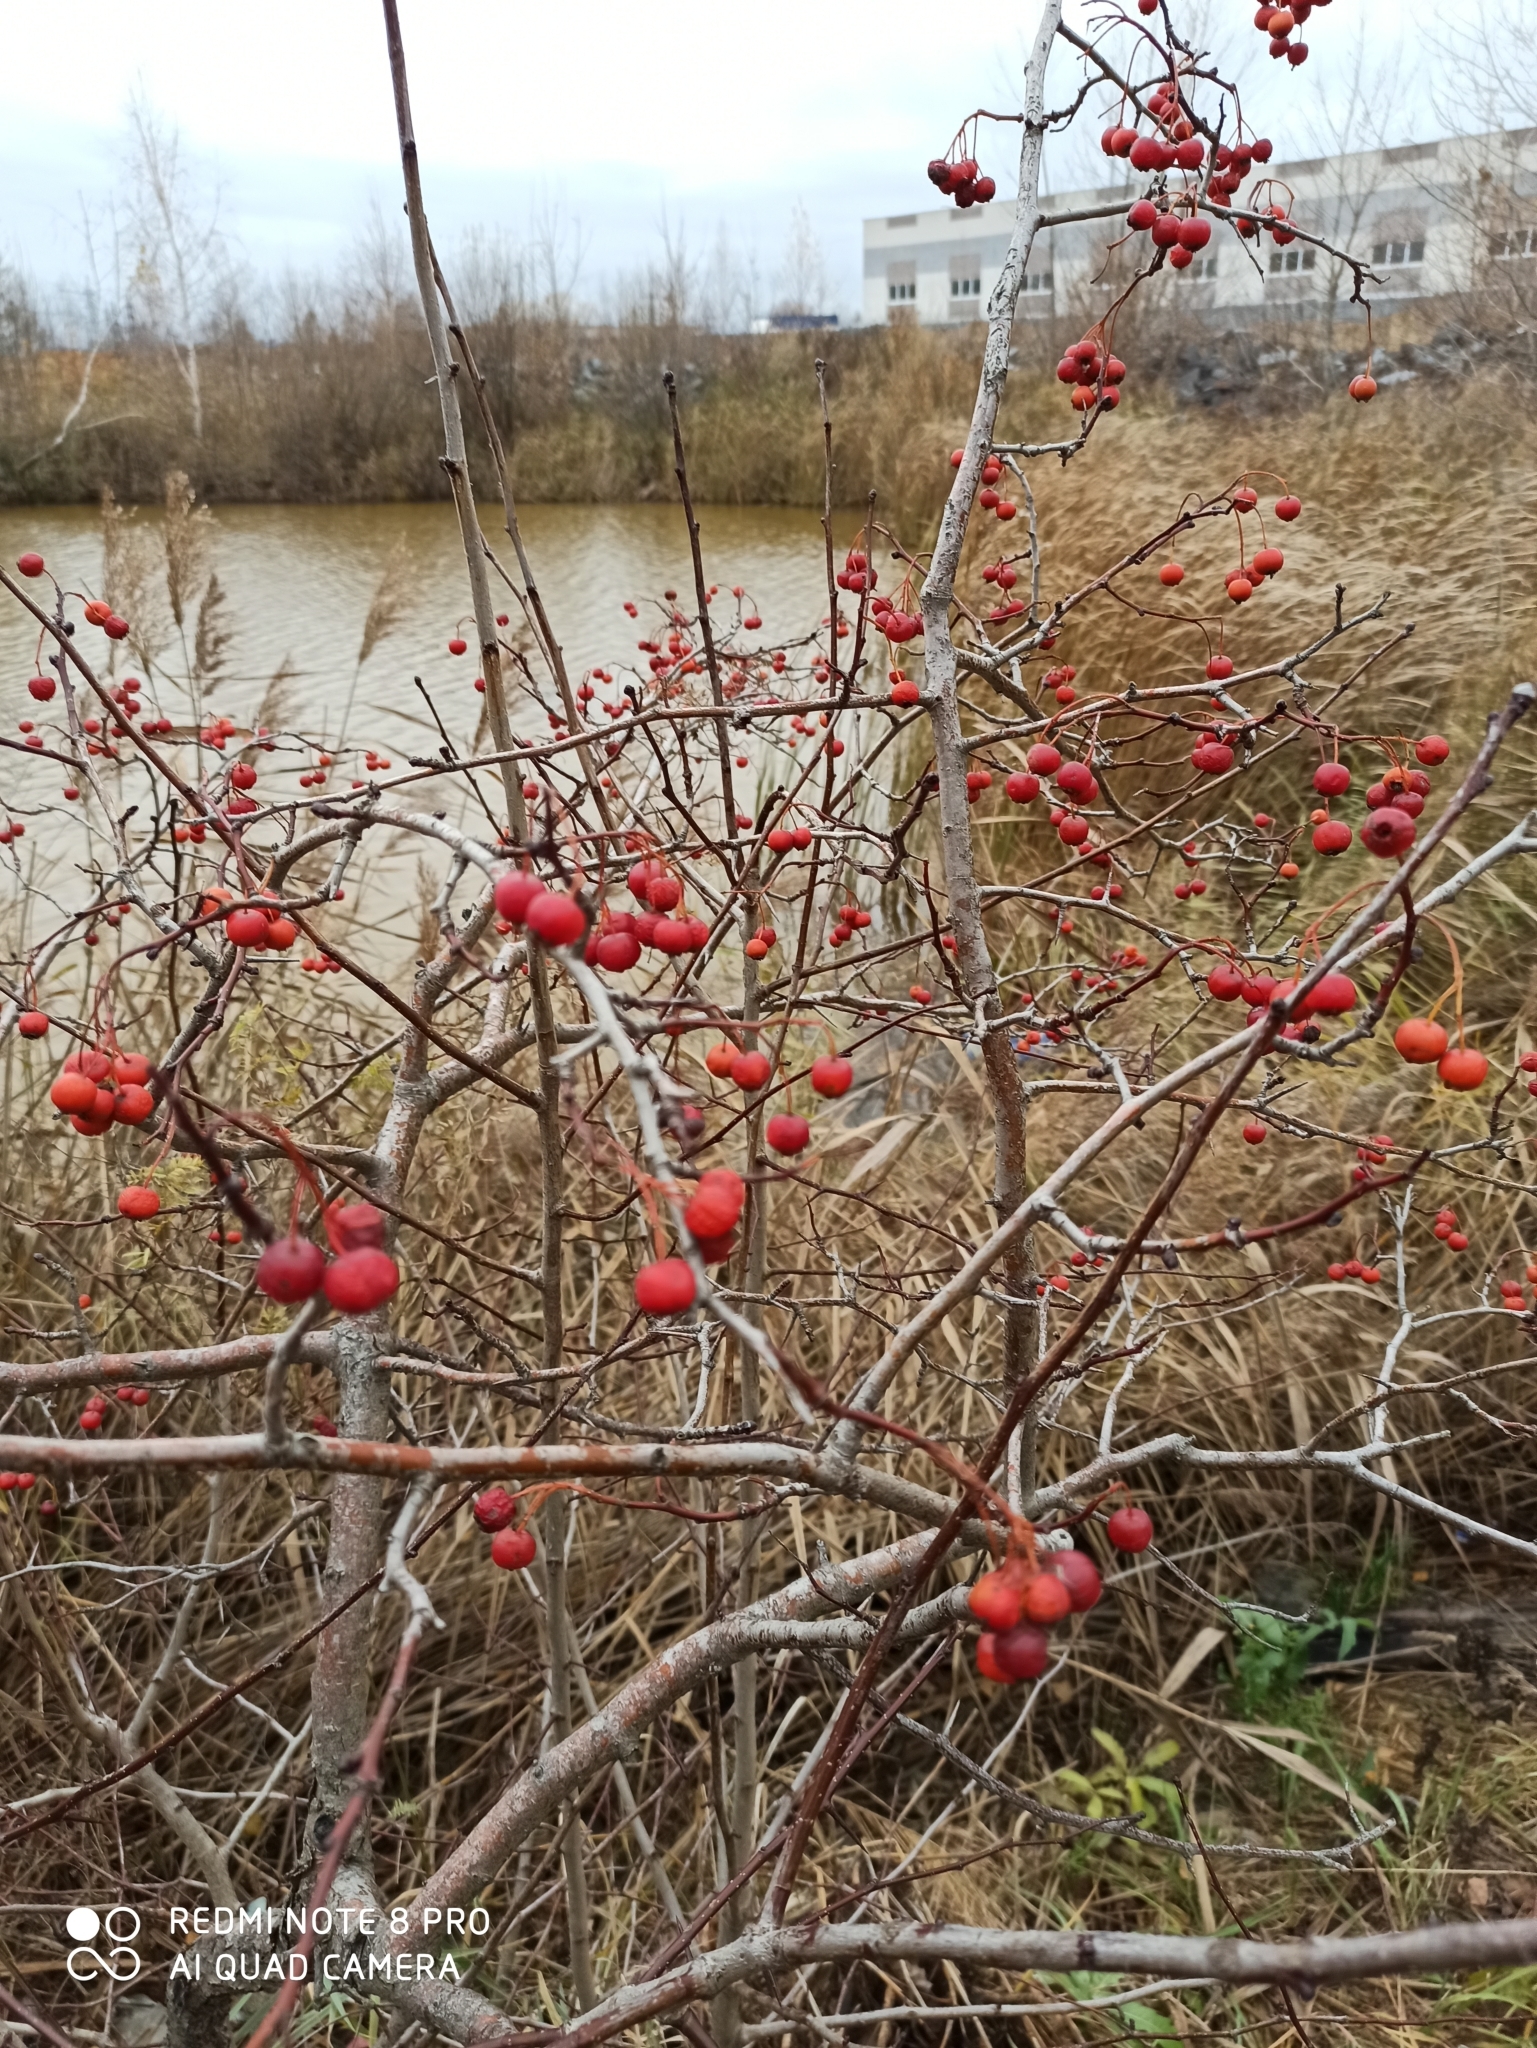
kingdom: Plantae
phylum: Tracheophyta
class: Magnoliopsida
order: Rosales
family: Rosaceae
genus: Malus
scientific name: Malus baccata
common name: Siberian crab
